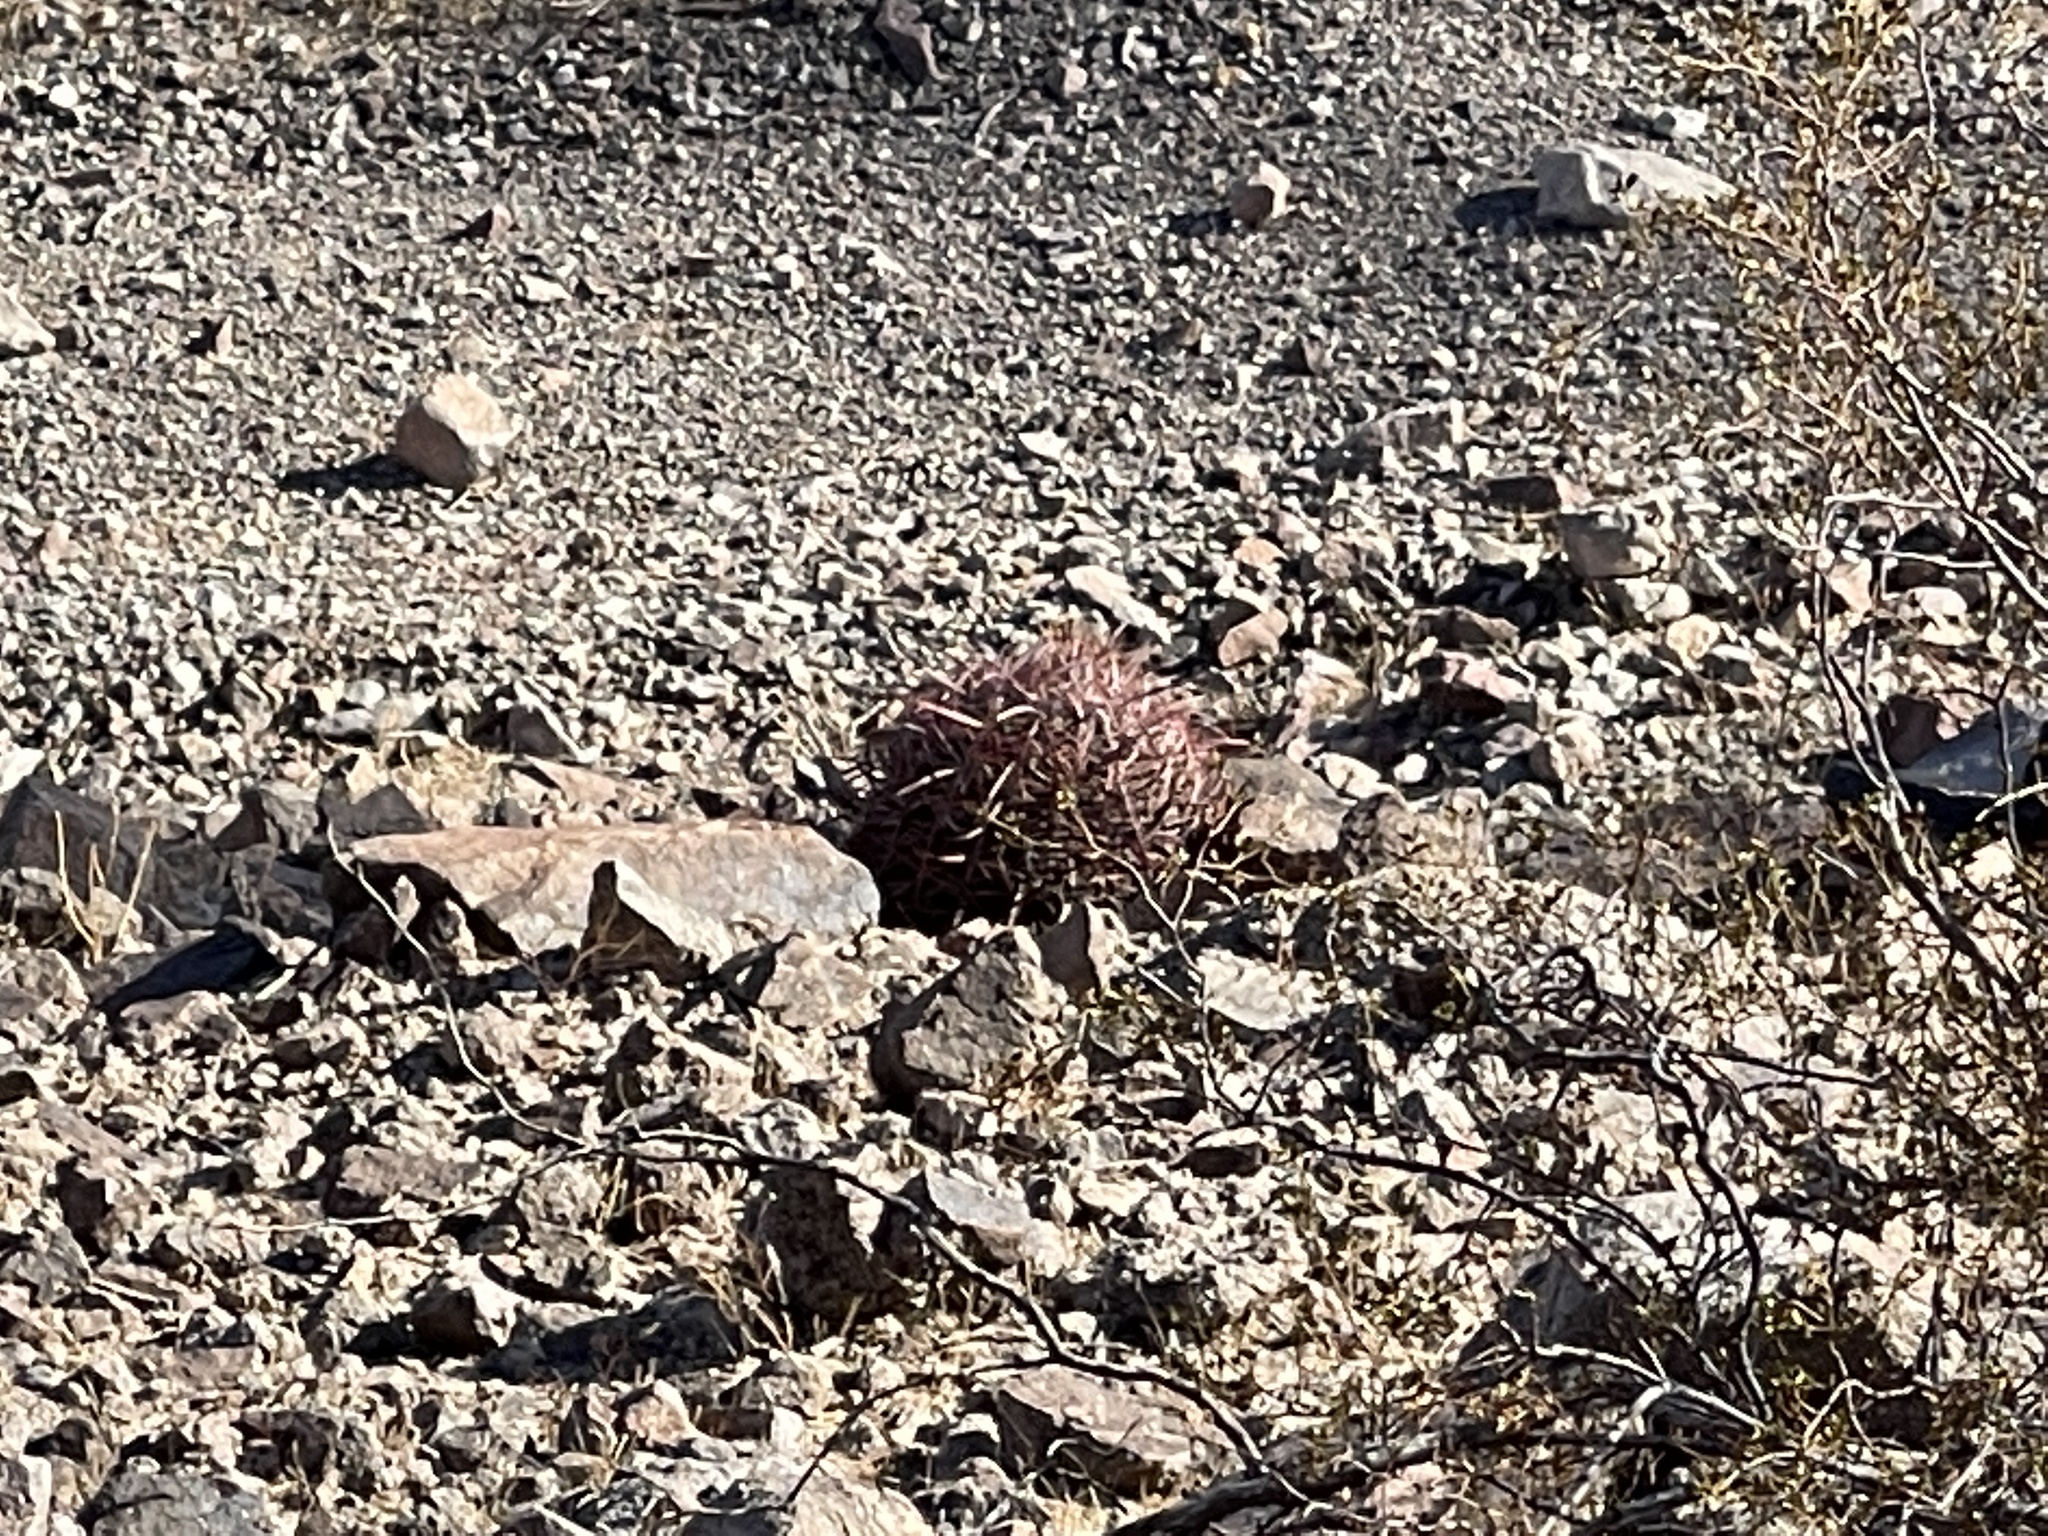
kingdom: Plantae
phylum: Tracheophyta
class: Magnoliopsida
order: Caryophyllales
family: Cactaceae
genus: Ferocactus
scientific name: Ferocactus cylindraceus
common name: California barrel cactus
